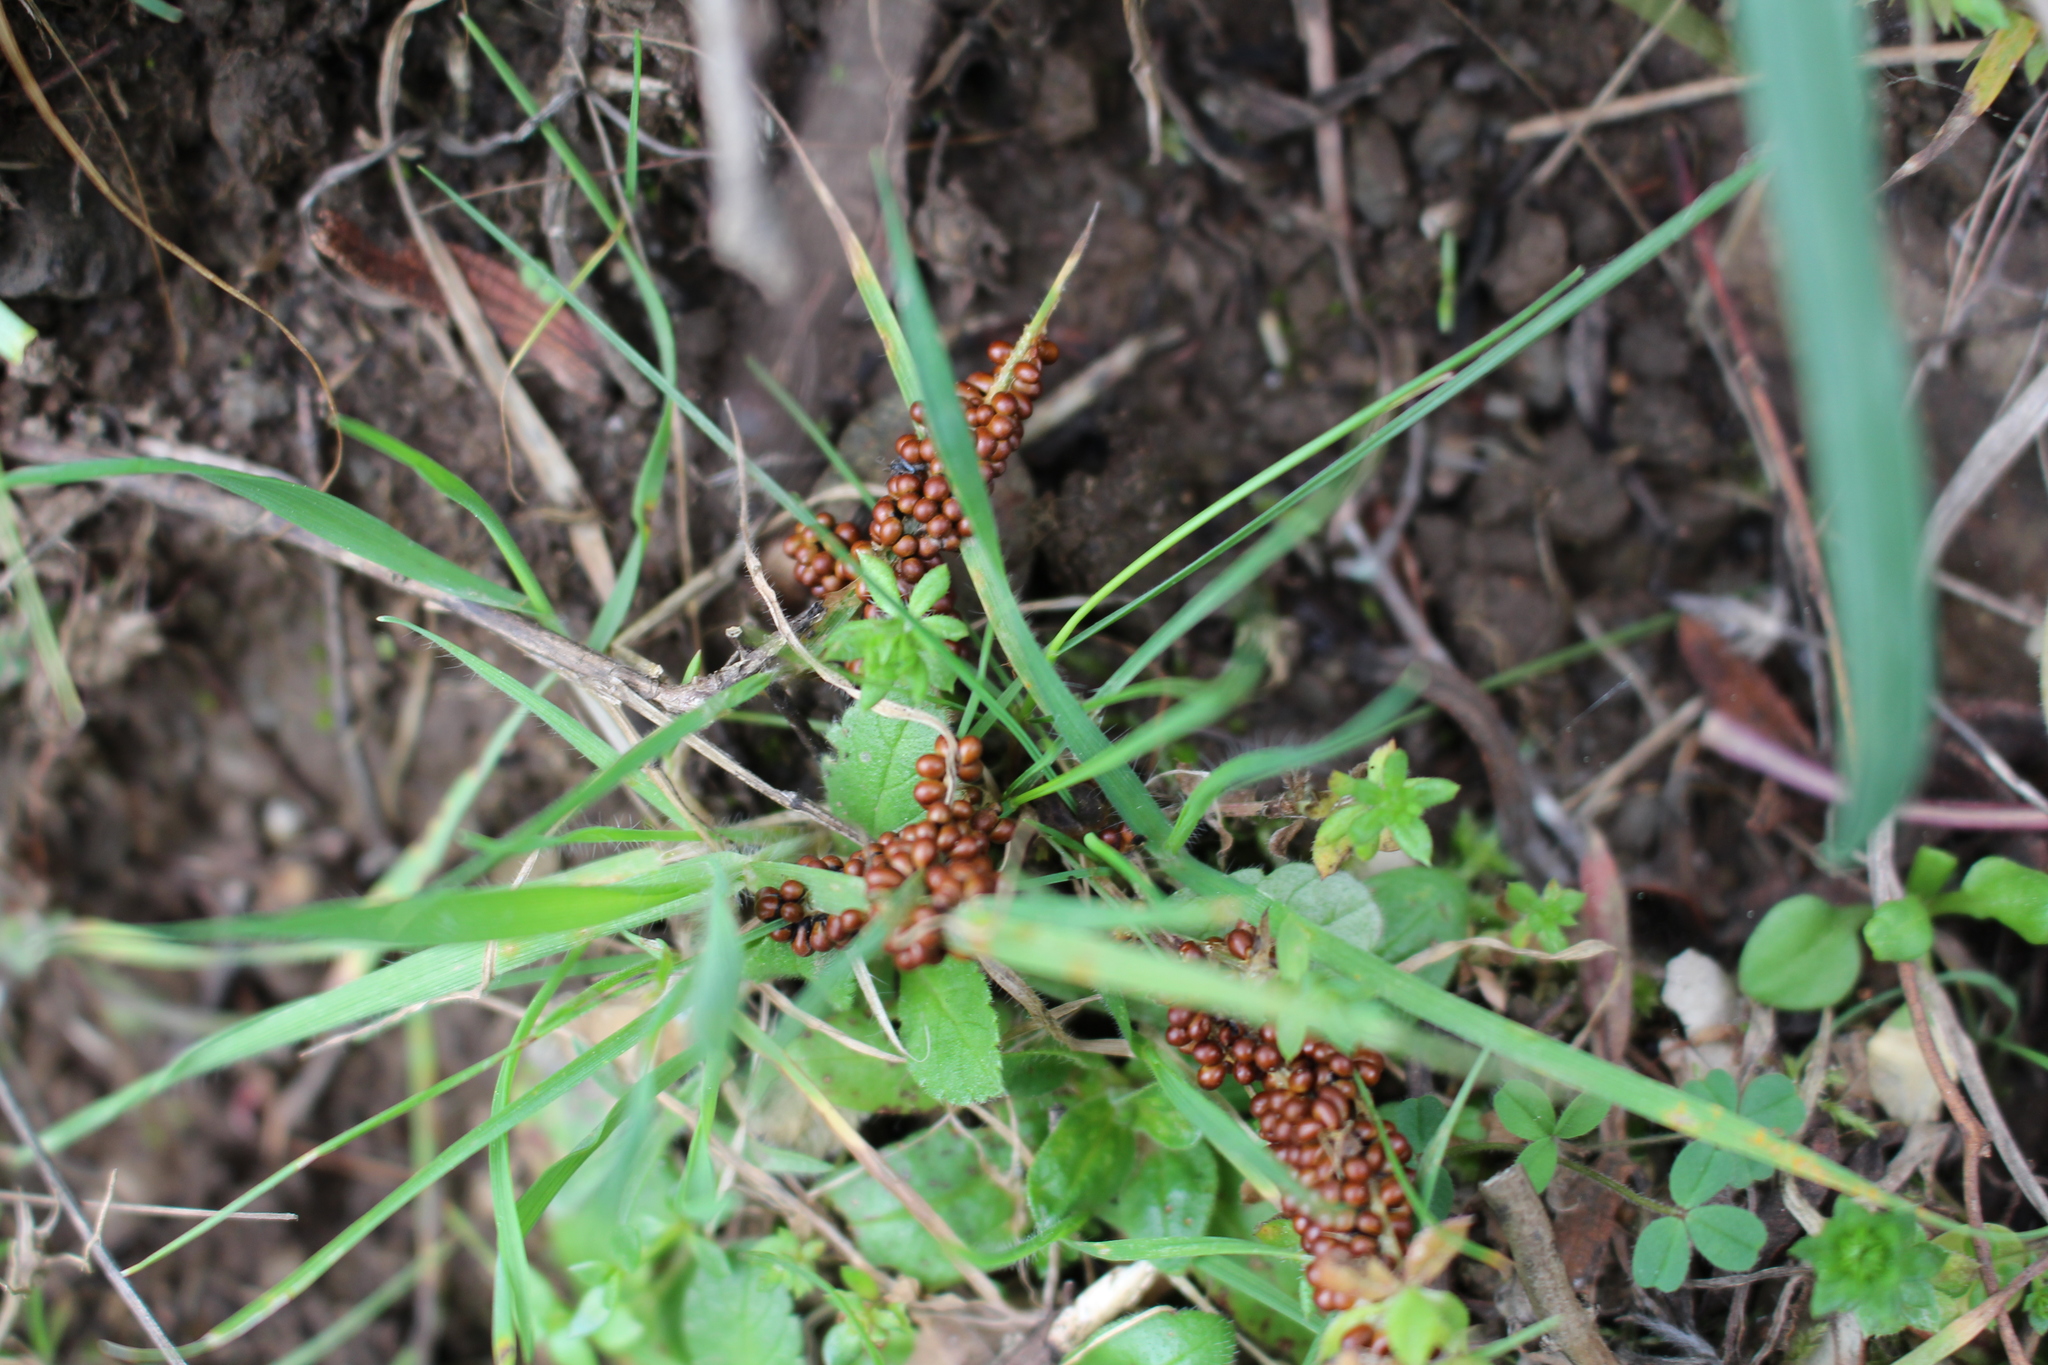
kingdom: Protozoa
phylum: Mycetozoa
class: Myxomycetes
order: Physarales
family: Physaraceae
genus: Leocarpus
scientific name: Leocarpus fragilis
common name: Insect-egg slime
